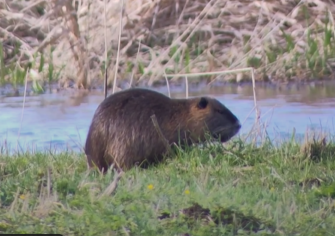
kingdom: Animalia
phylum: Chordata
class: Mammalia
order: Rodentia
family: Myocastoridae
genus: Myocastor
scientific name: Myocastor coypus
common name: Coypu
